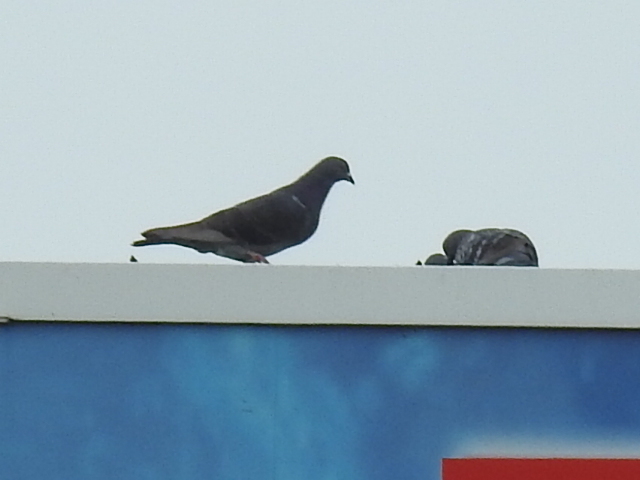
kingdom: Animalia
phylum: Chordata
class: Aves
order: Columbiformes
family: Columbidae
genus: Columba
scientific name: Columba livia
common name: Rock pigeon
